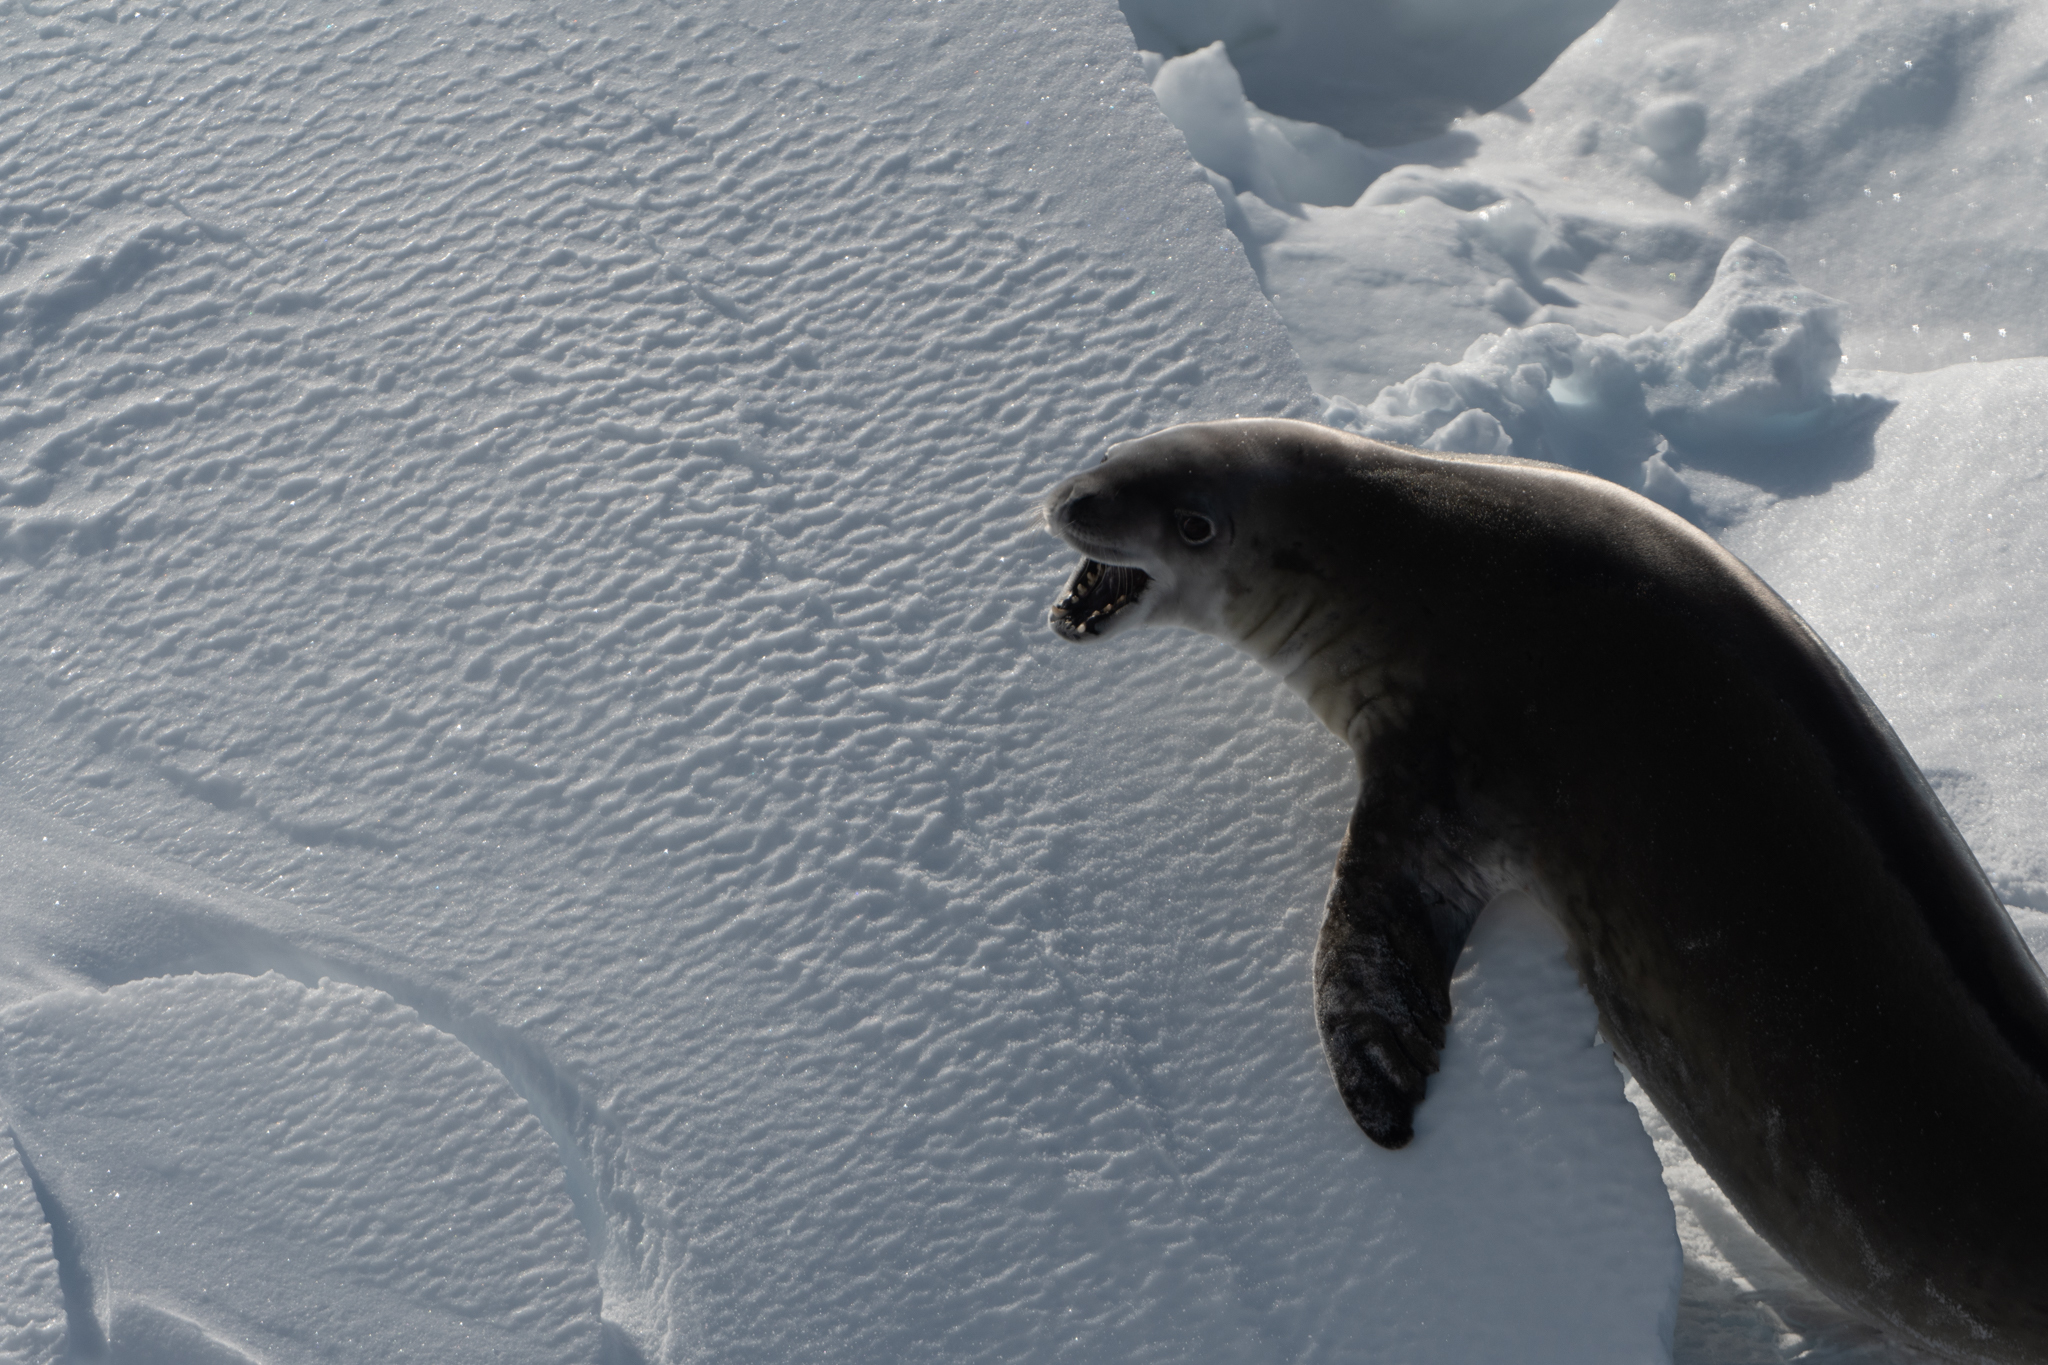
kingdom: Animalia
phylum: Chordata
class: Mammalia
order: Carnivora
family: Phocidae
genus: Lobodon
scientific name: Lobodon carcinophaga
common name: Crabeater seal
